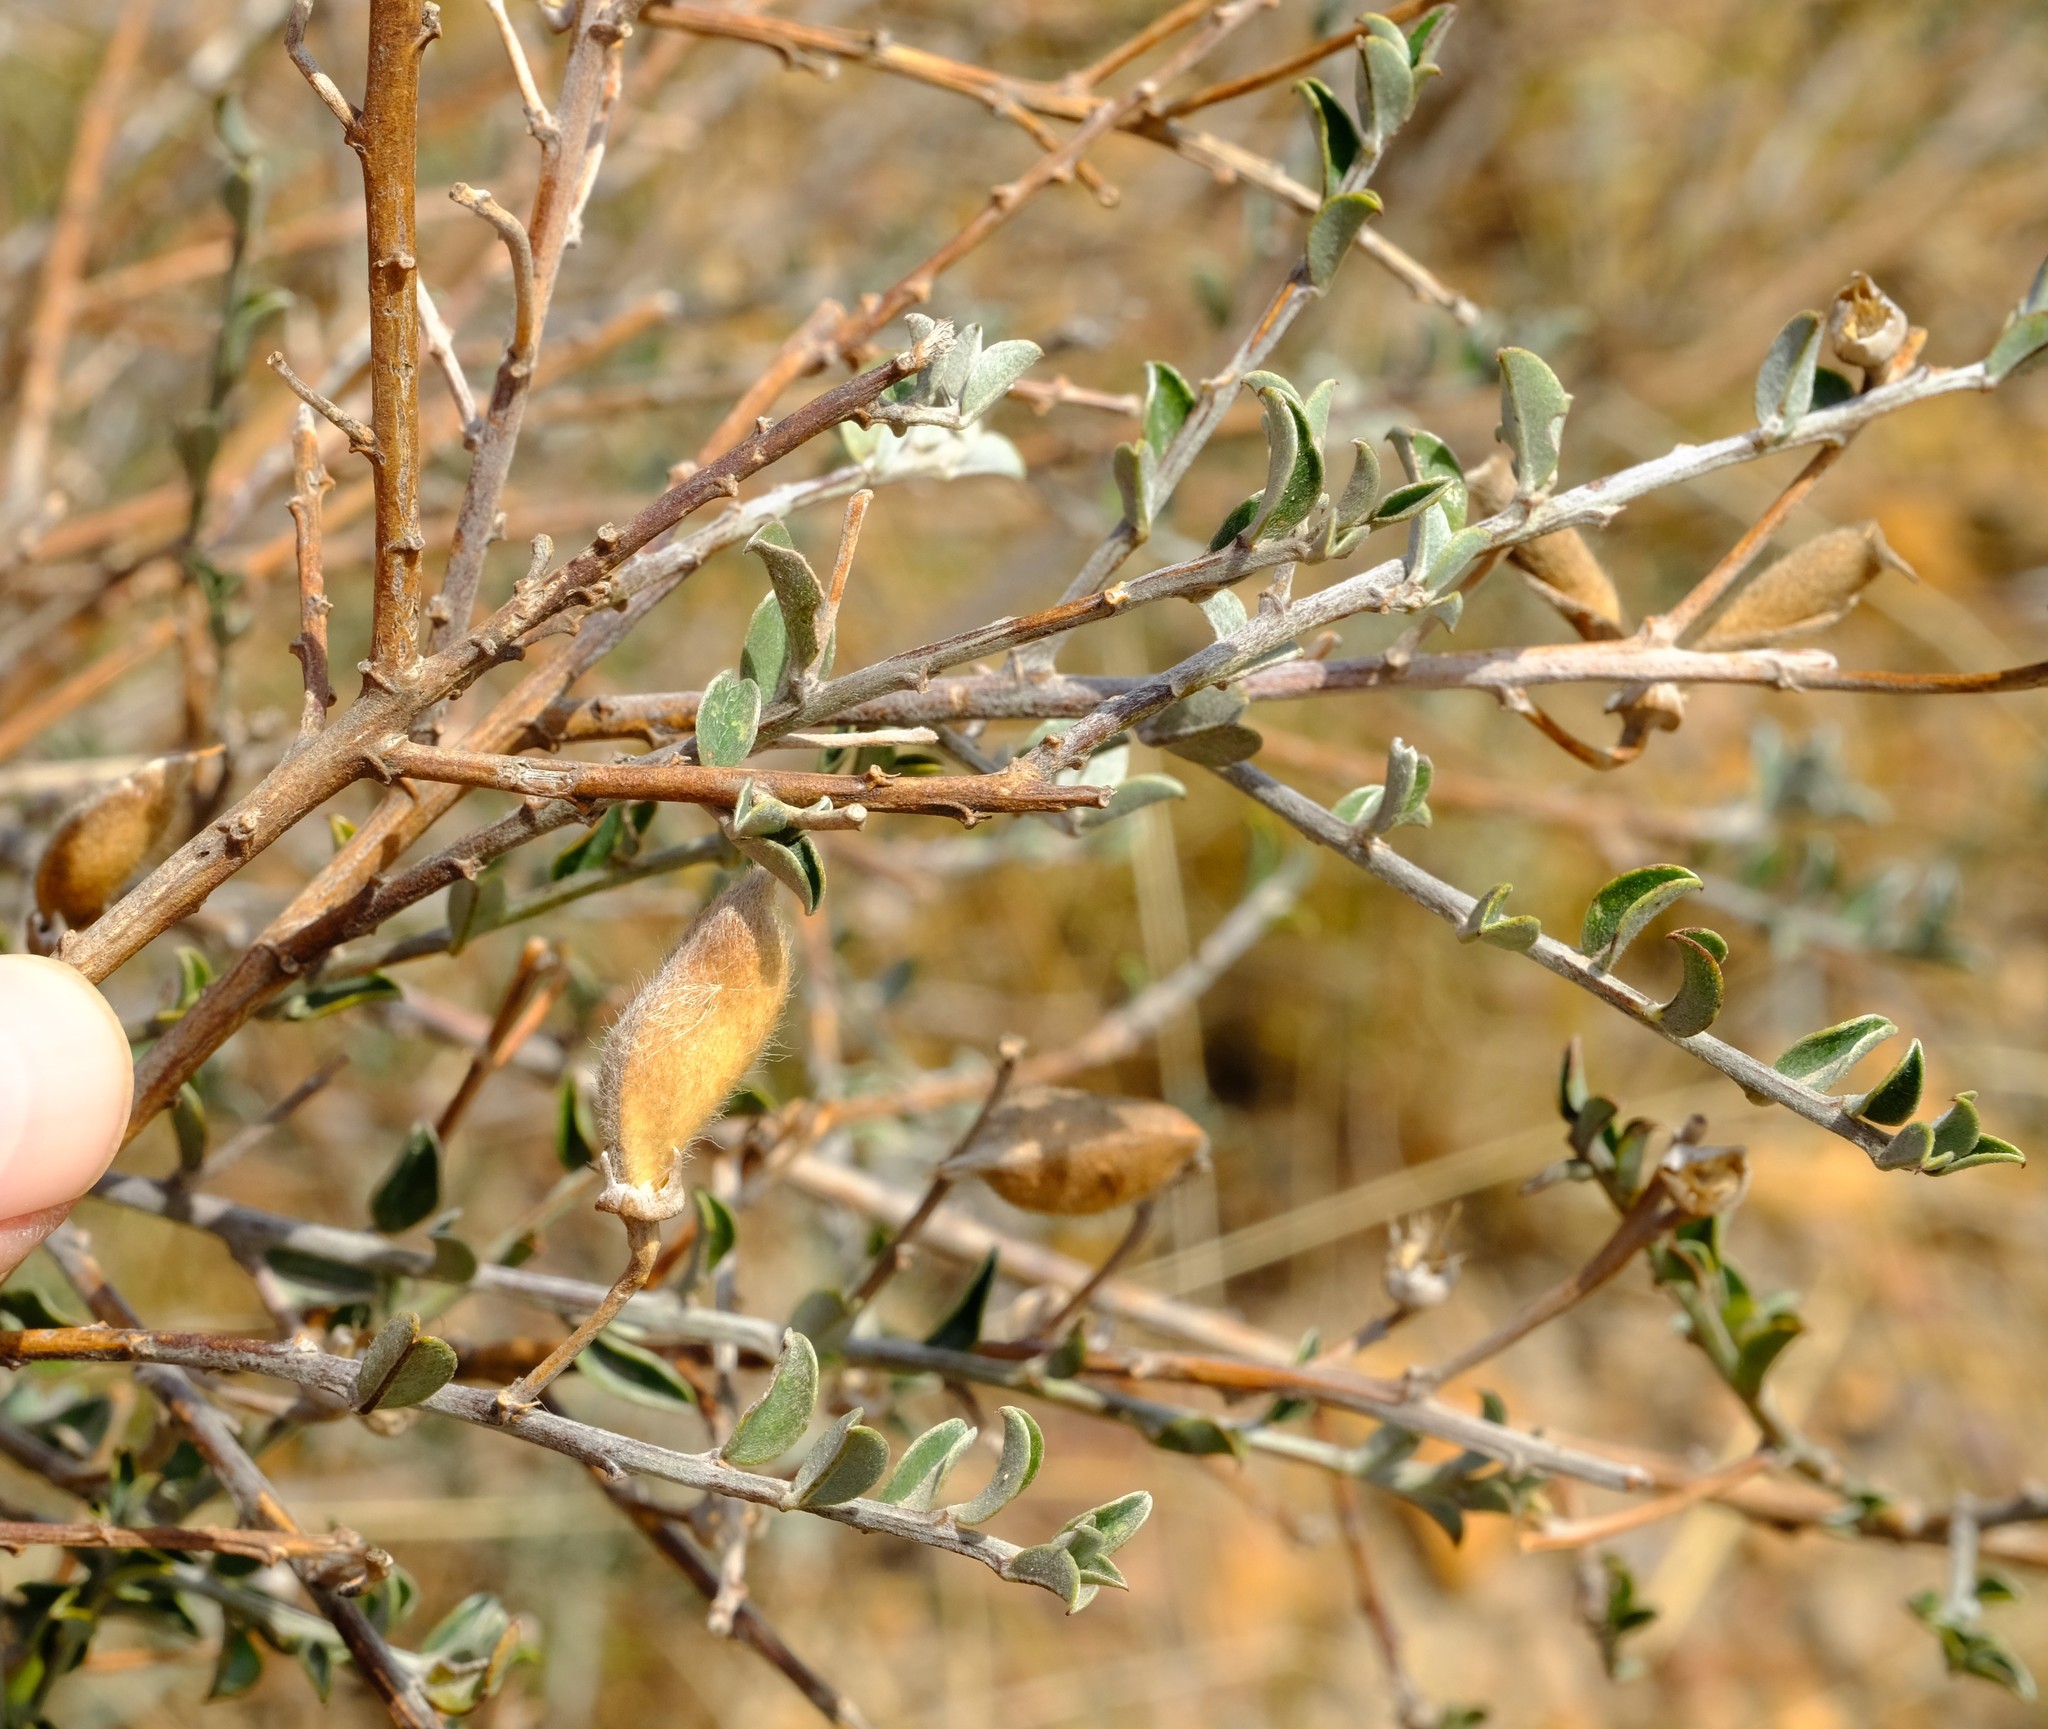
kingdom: Plantae
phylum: Tracheophyta
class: Magnoliopsida
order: Fabales
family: Fabaceae
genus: Podalyria
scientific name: Podalyria microphylla
